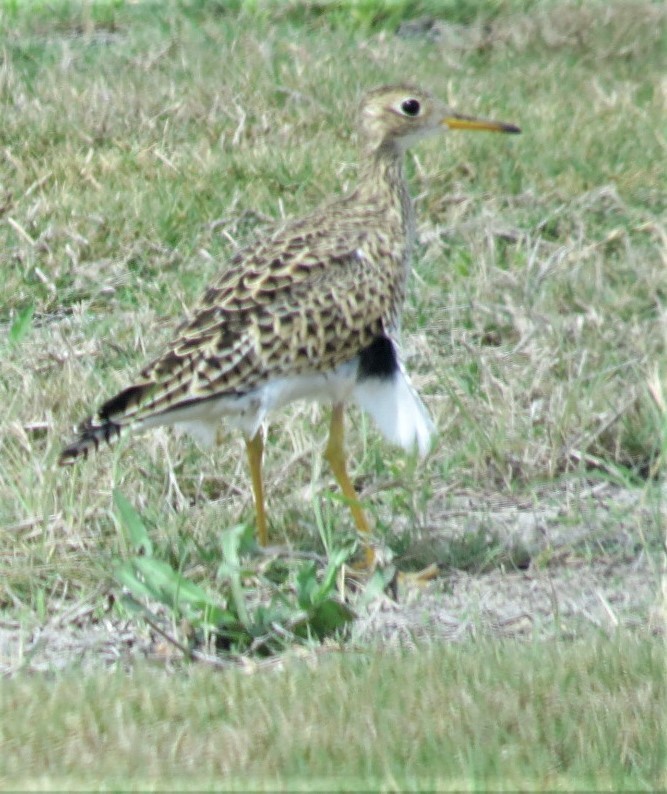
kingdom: Animalia
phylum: Chordata
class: Aves
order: Charadriiformes
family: Scolopacidae
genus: Bartramia
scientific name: Bartramia longicauda
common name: Upland sandpiper
